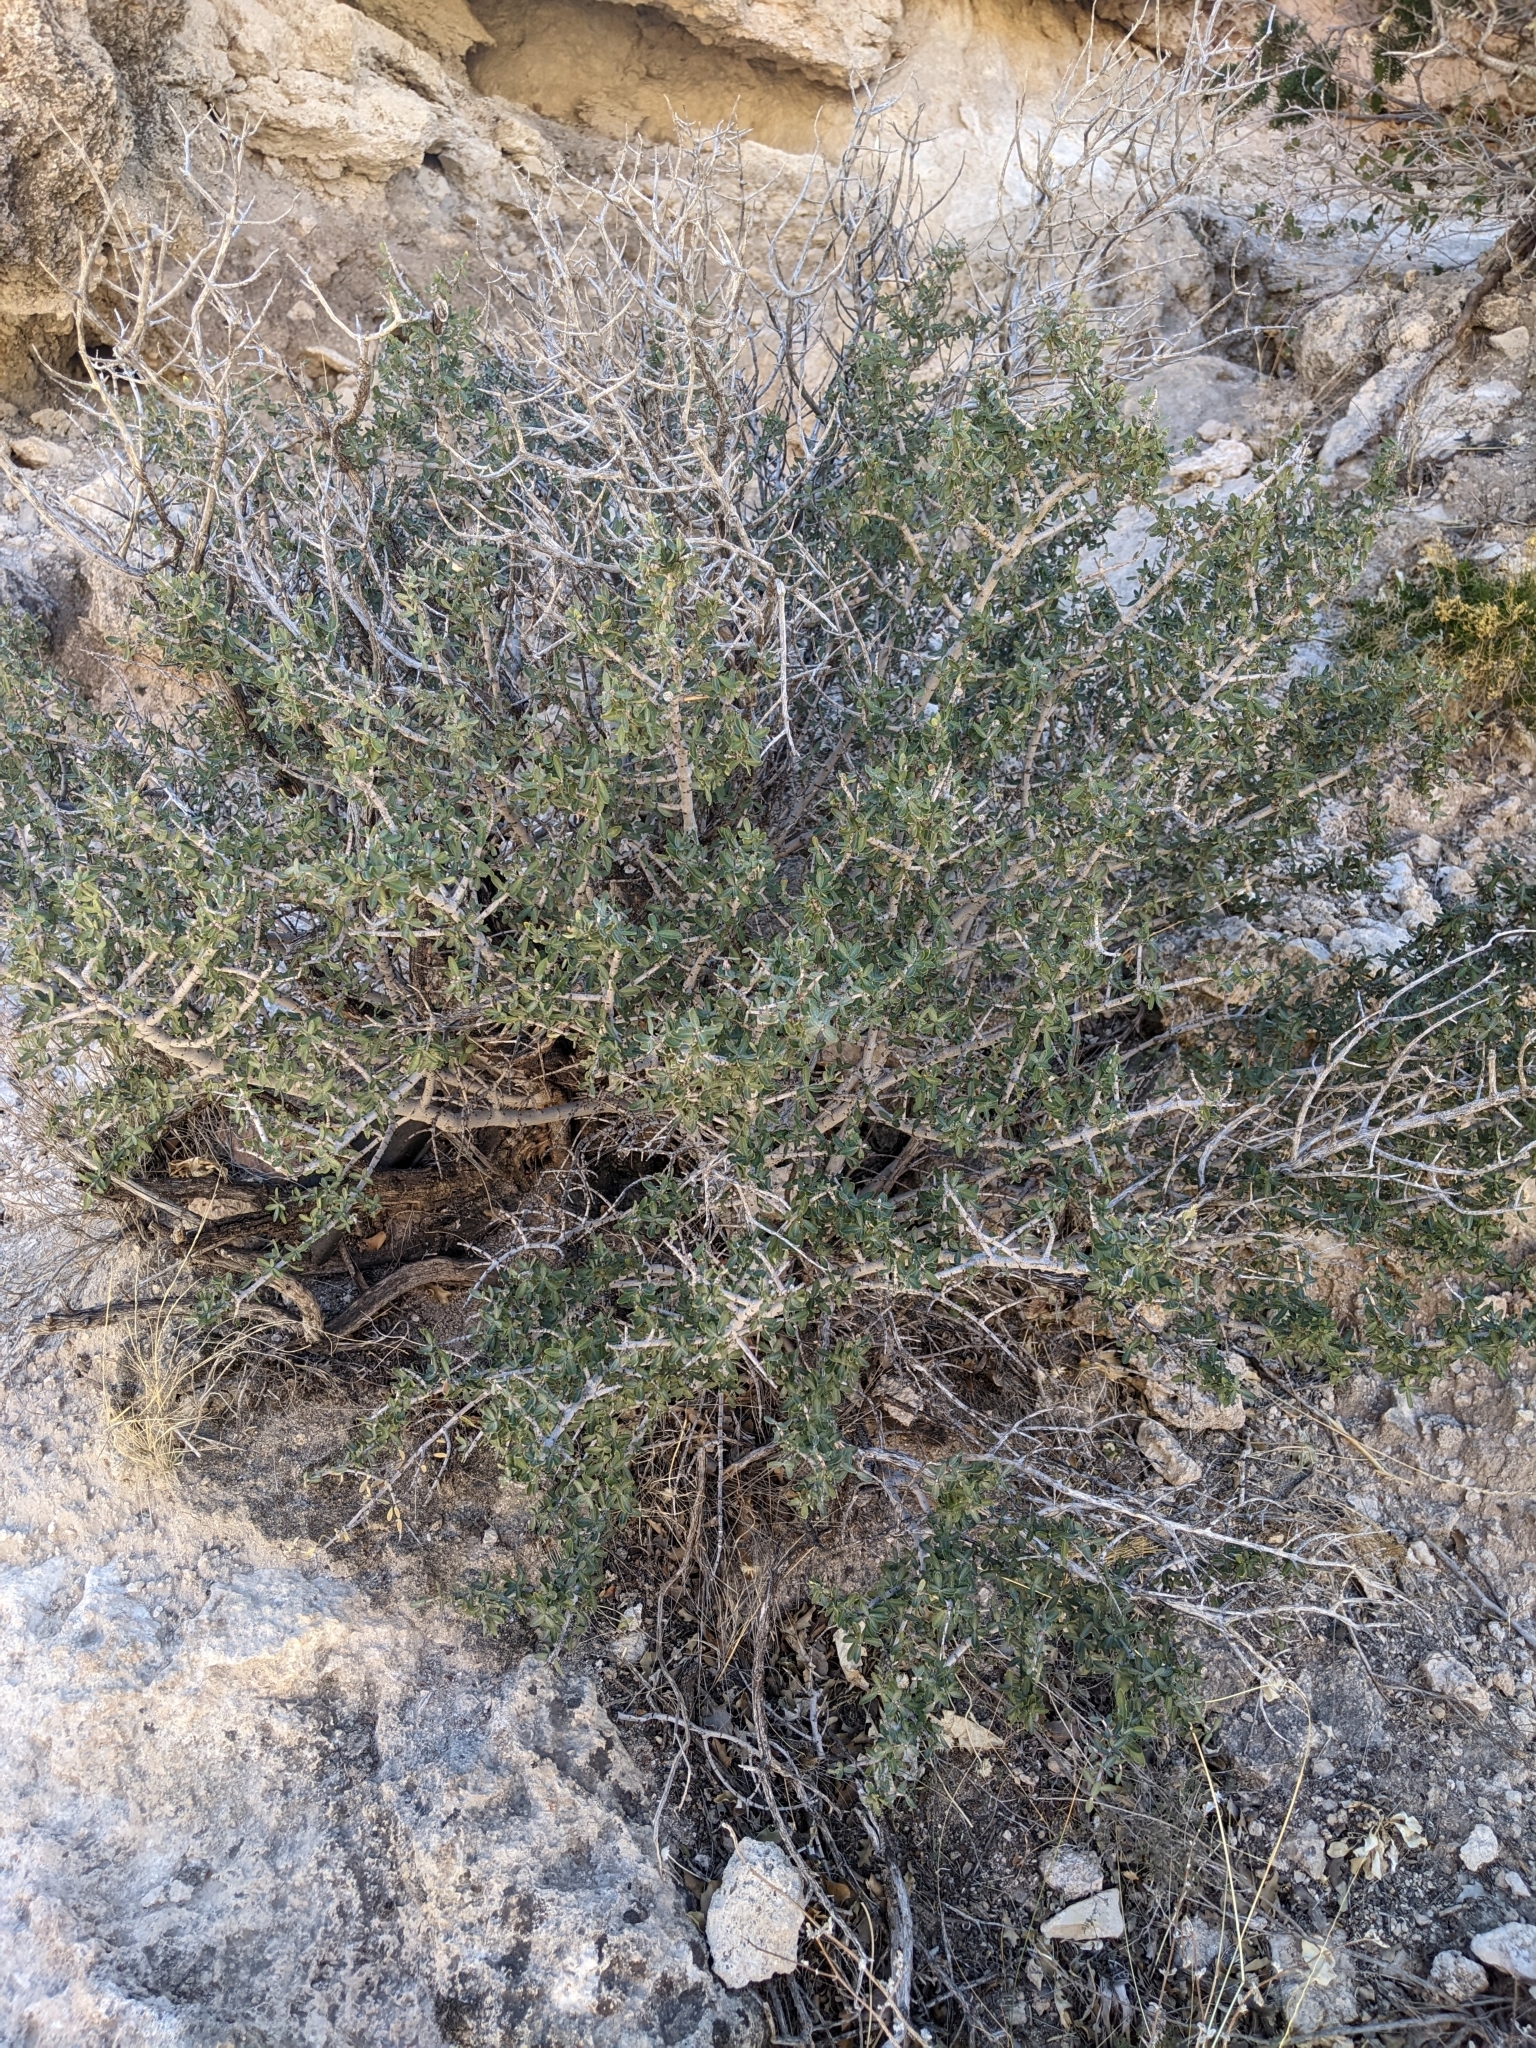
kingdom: Plantae
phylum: Tracheophyta
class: Magnoliopsida
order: Rosales
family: Rhamnaceae
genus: Ceanothus
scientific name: Ceanothus pauciflorus
